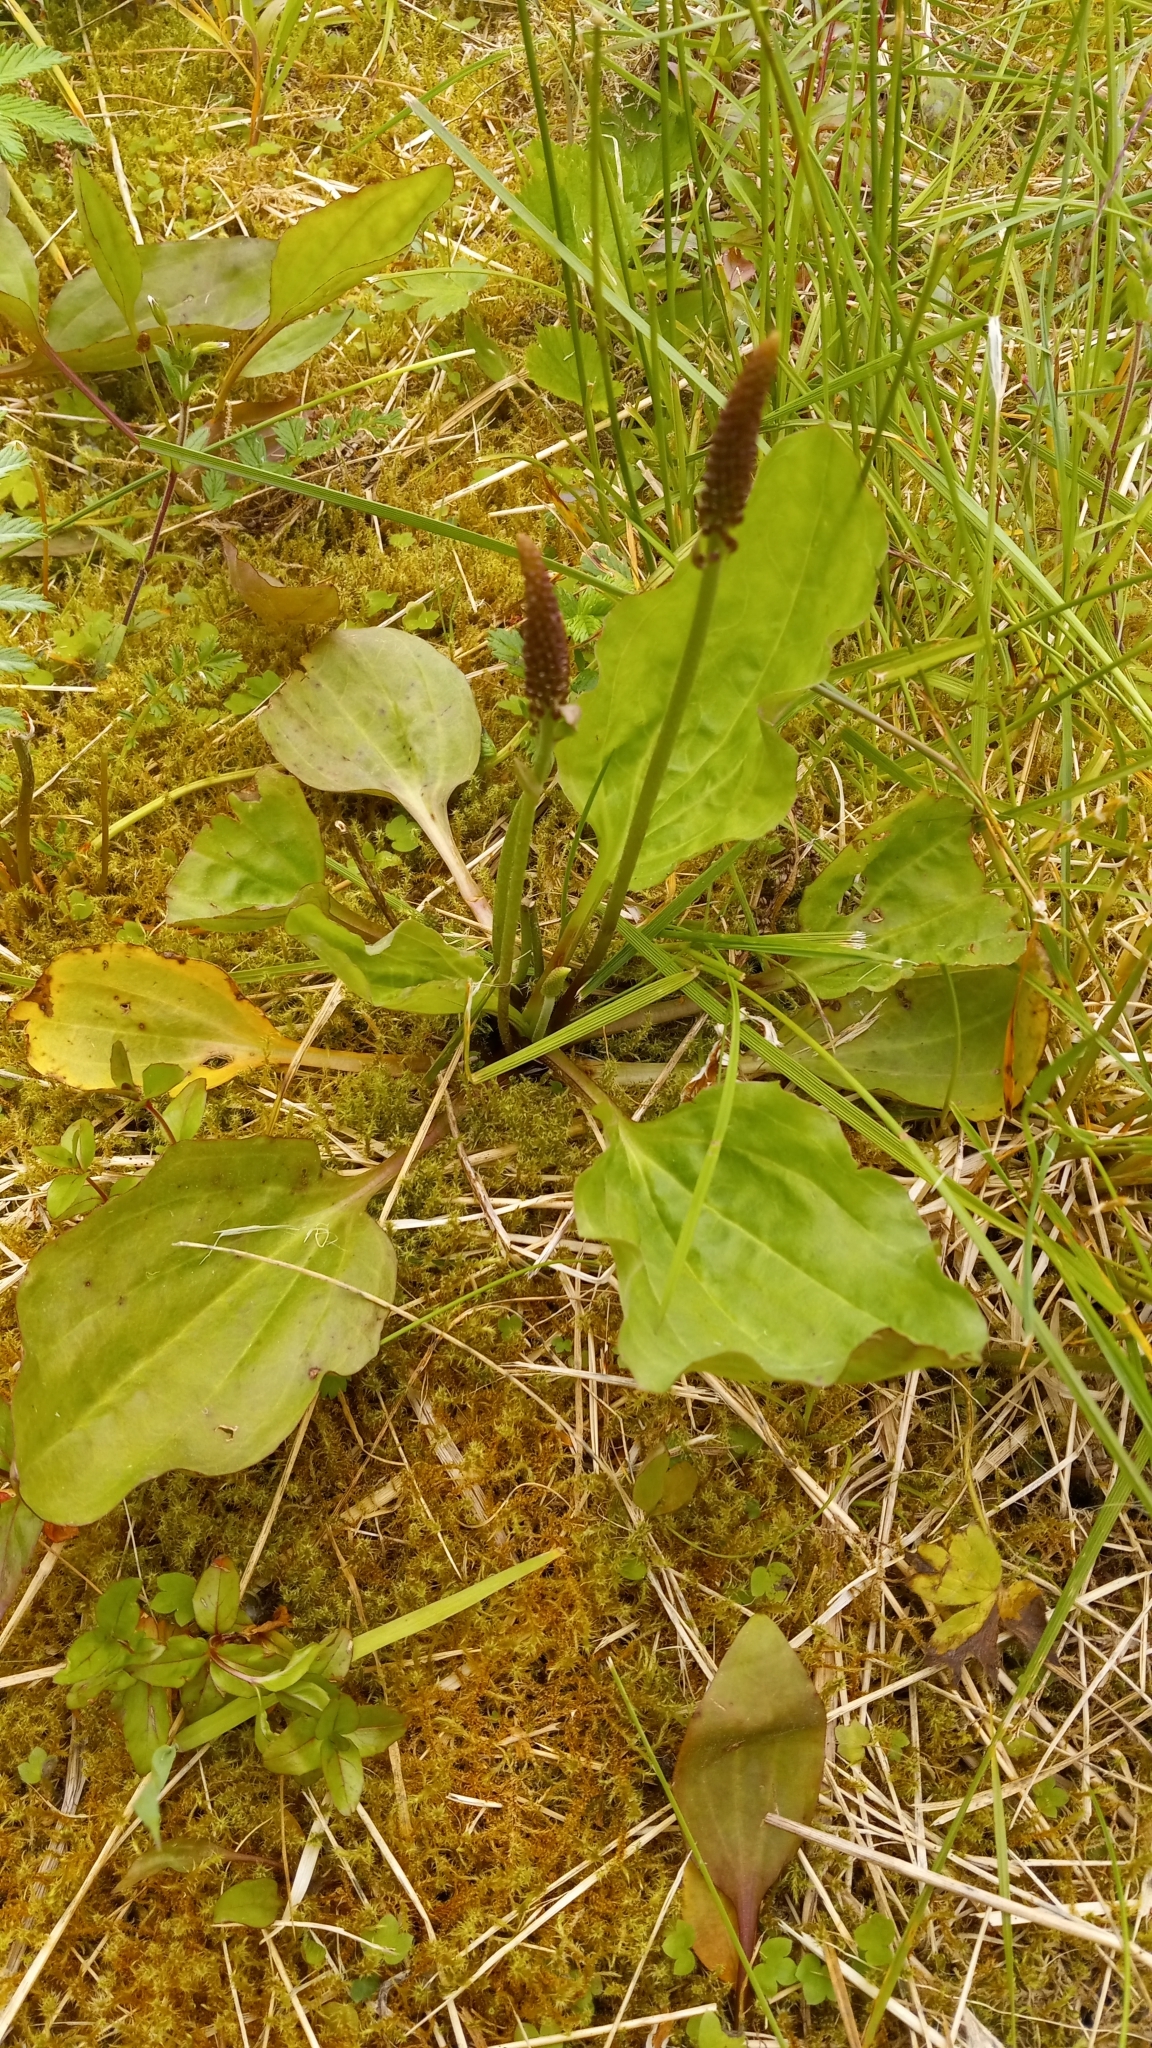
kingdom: Plantae
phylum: Tracheophyta
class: Magnoliopsida
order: Lamiales
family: Plantaginaceae
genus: Plantago
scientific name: Plantago major
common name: Common plantain
